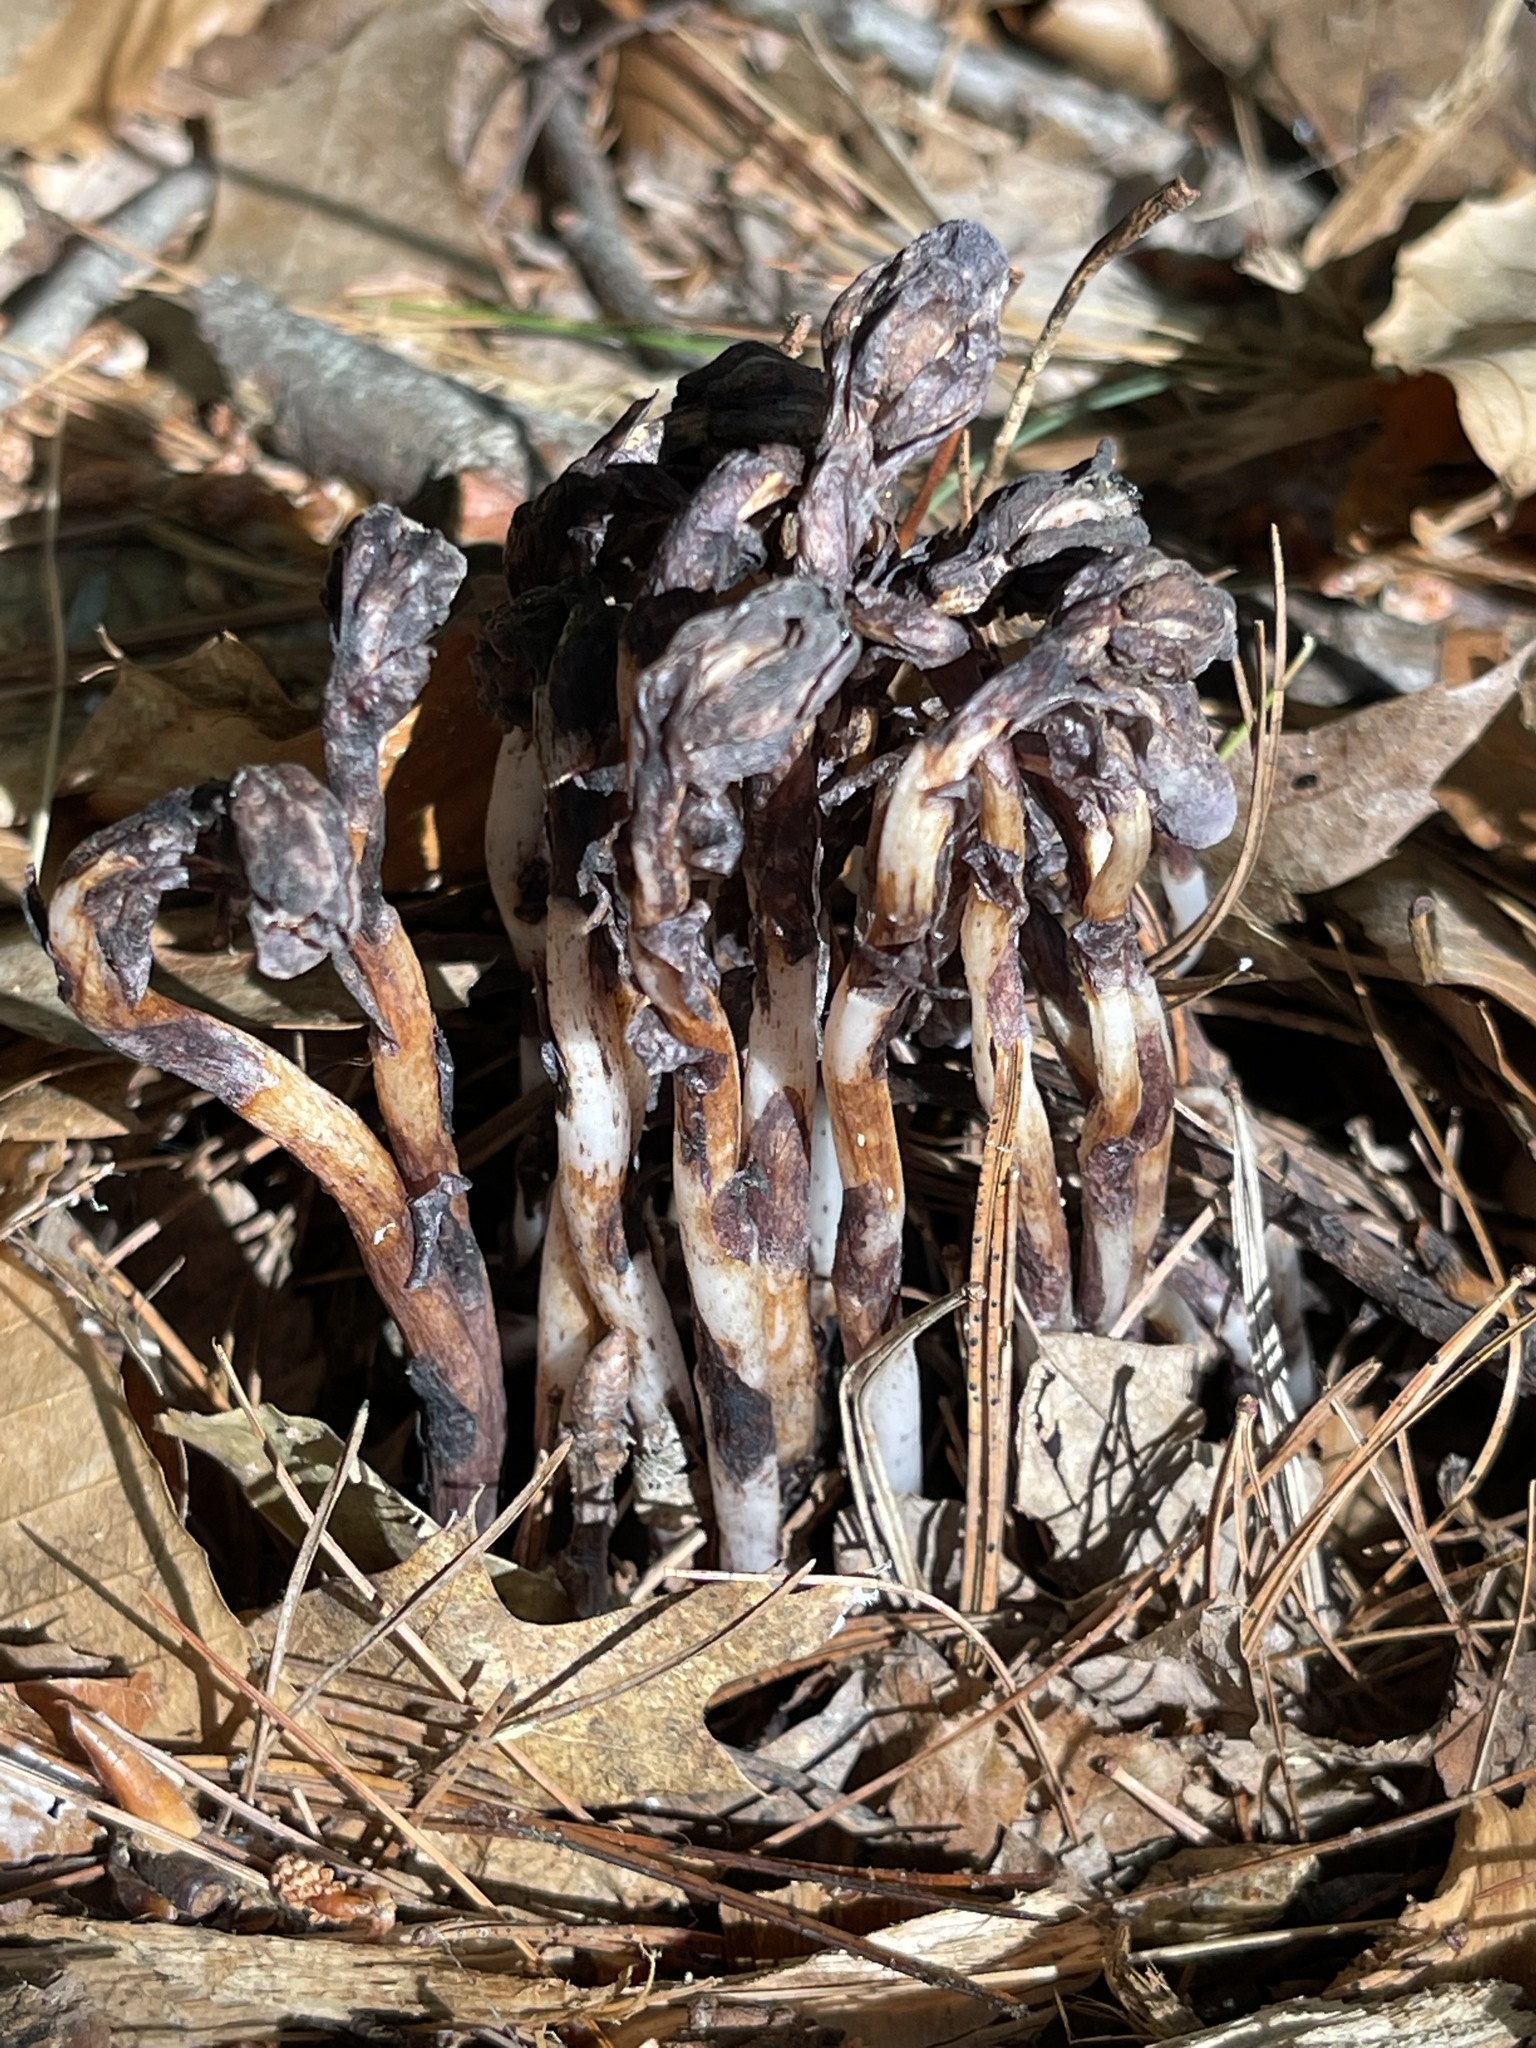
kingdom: Plantae
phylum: Tracheophyta
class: Magnoliopsida
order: Ericales
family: Ericaceae
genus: Monotropa
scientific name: Monotropa uniflora
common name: Convulsion root
